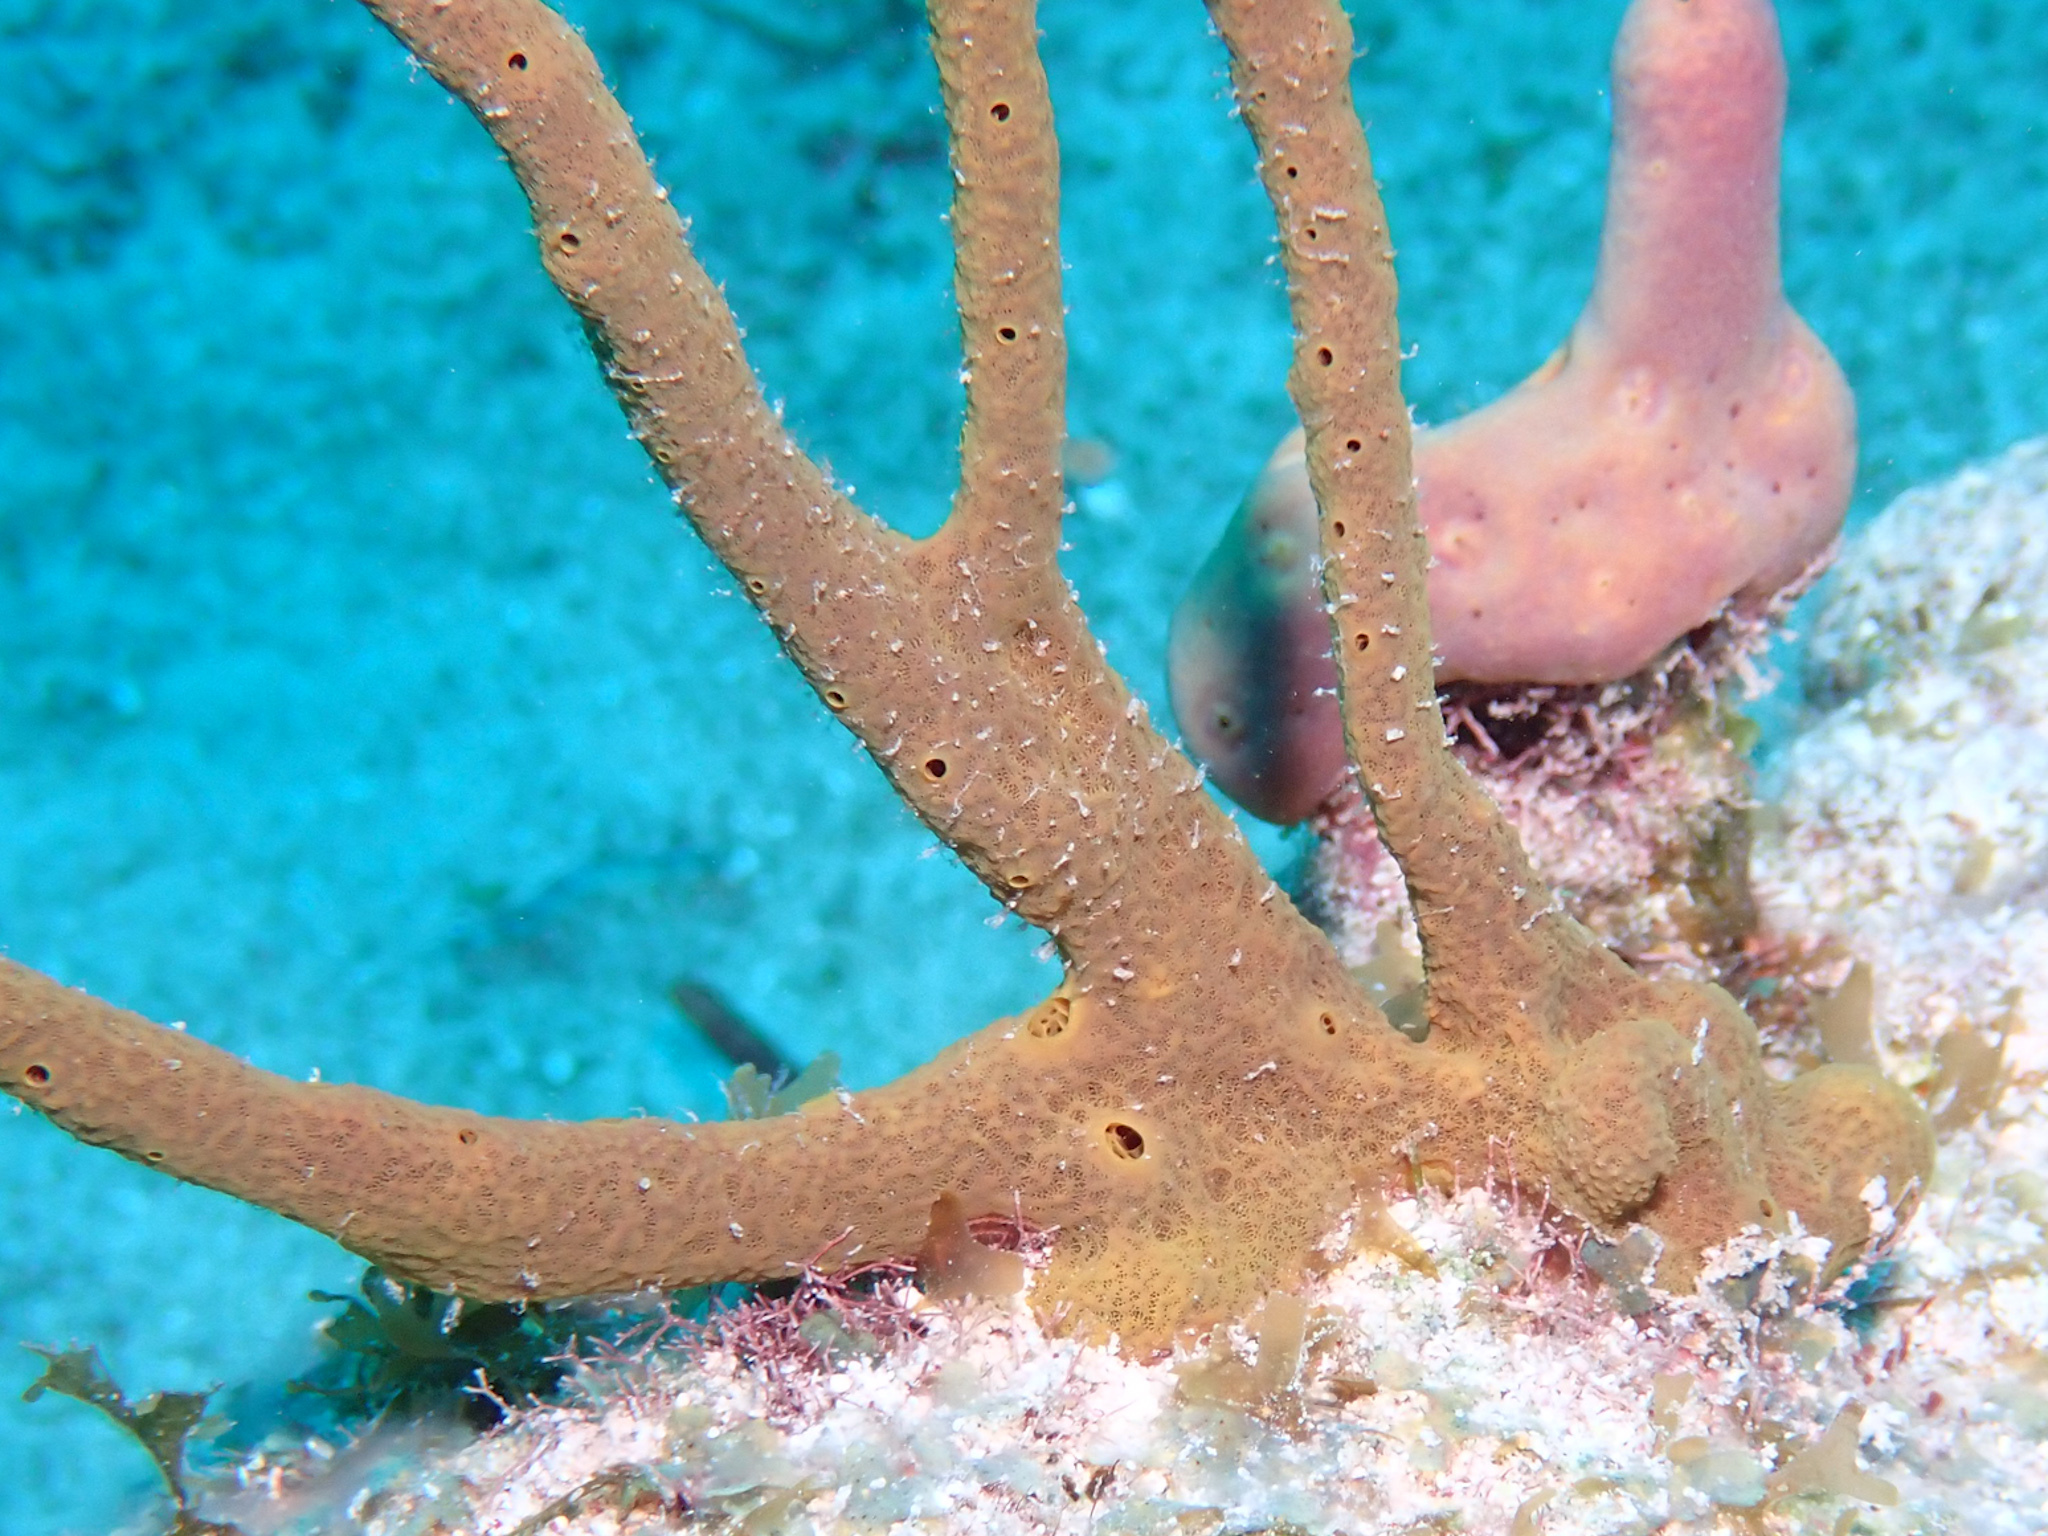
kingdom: Animalia
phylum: Porifera
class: Demospongiae
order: Verongiida
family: Aplysinidae
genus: Aplysina
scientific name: Aplysina cauliformis
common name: Branching candle sponge
